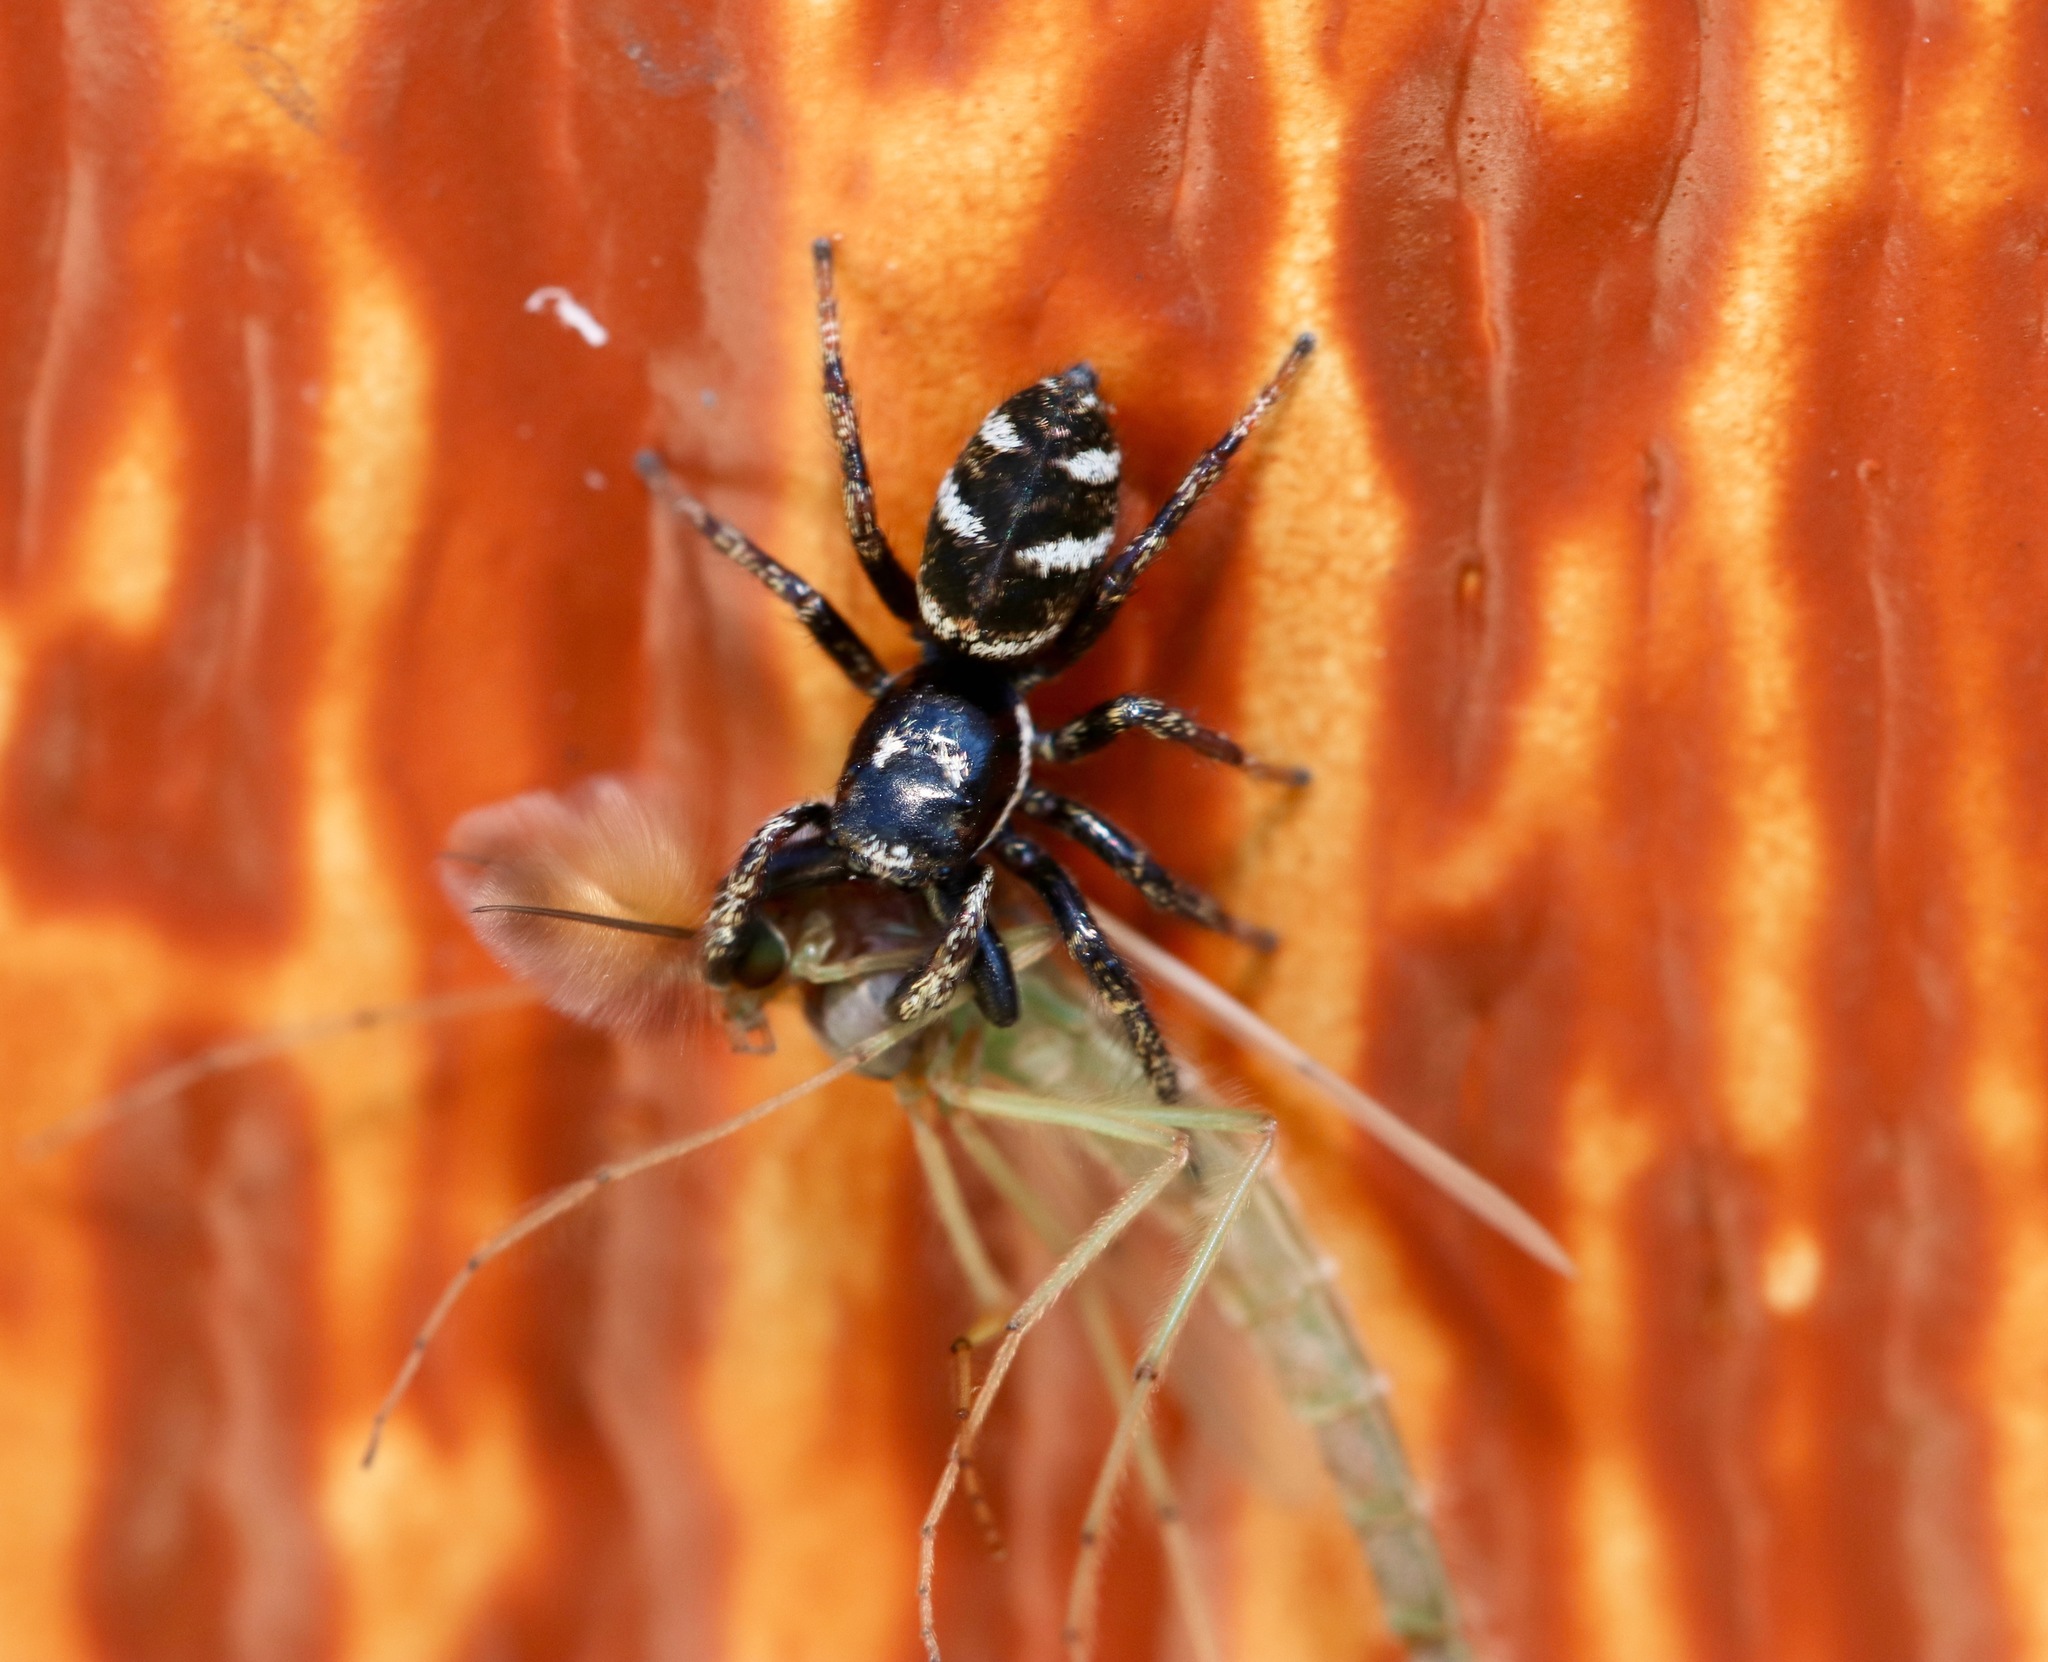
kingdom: Animalia
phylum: Arthropoda
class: Arachnida
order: Araneae
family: Salticidae
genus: Salticus
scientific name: Salticus scenicus
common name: Zebra jumper
